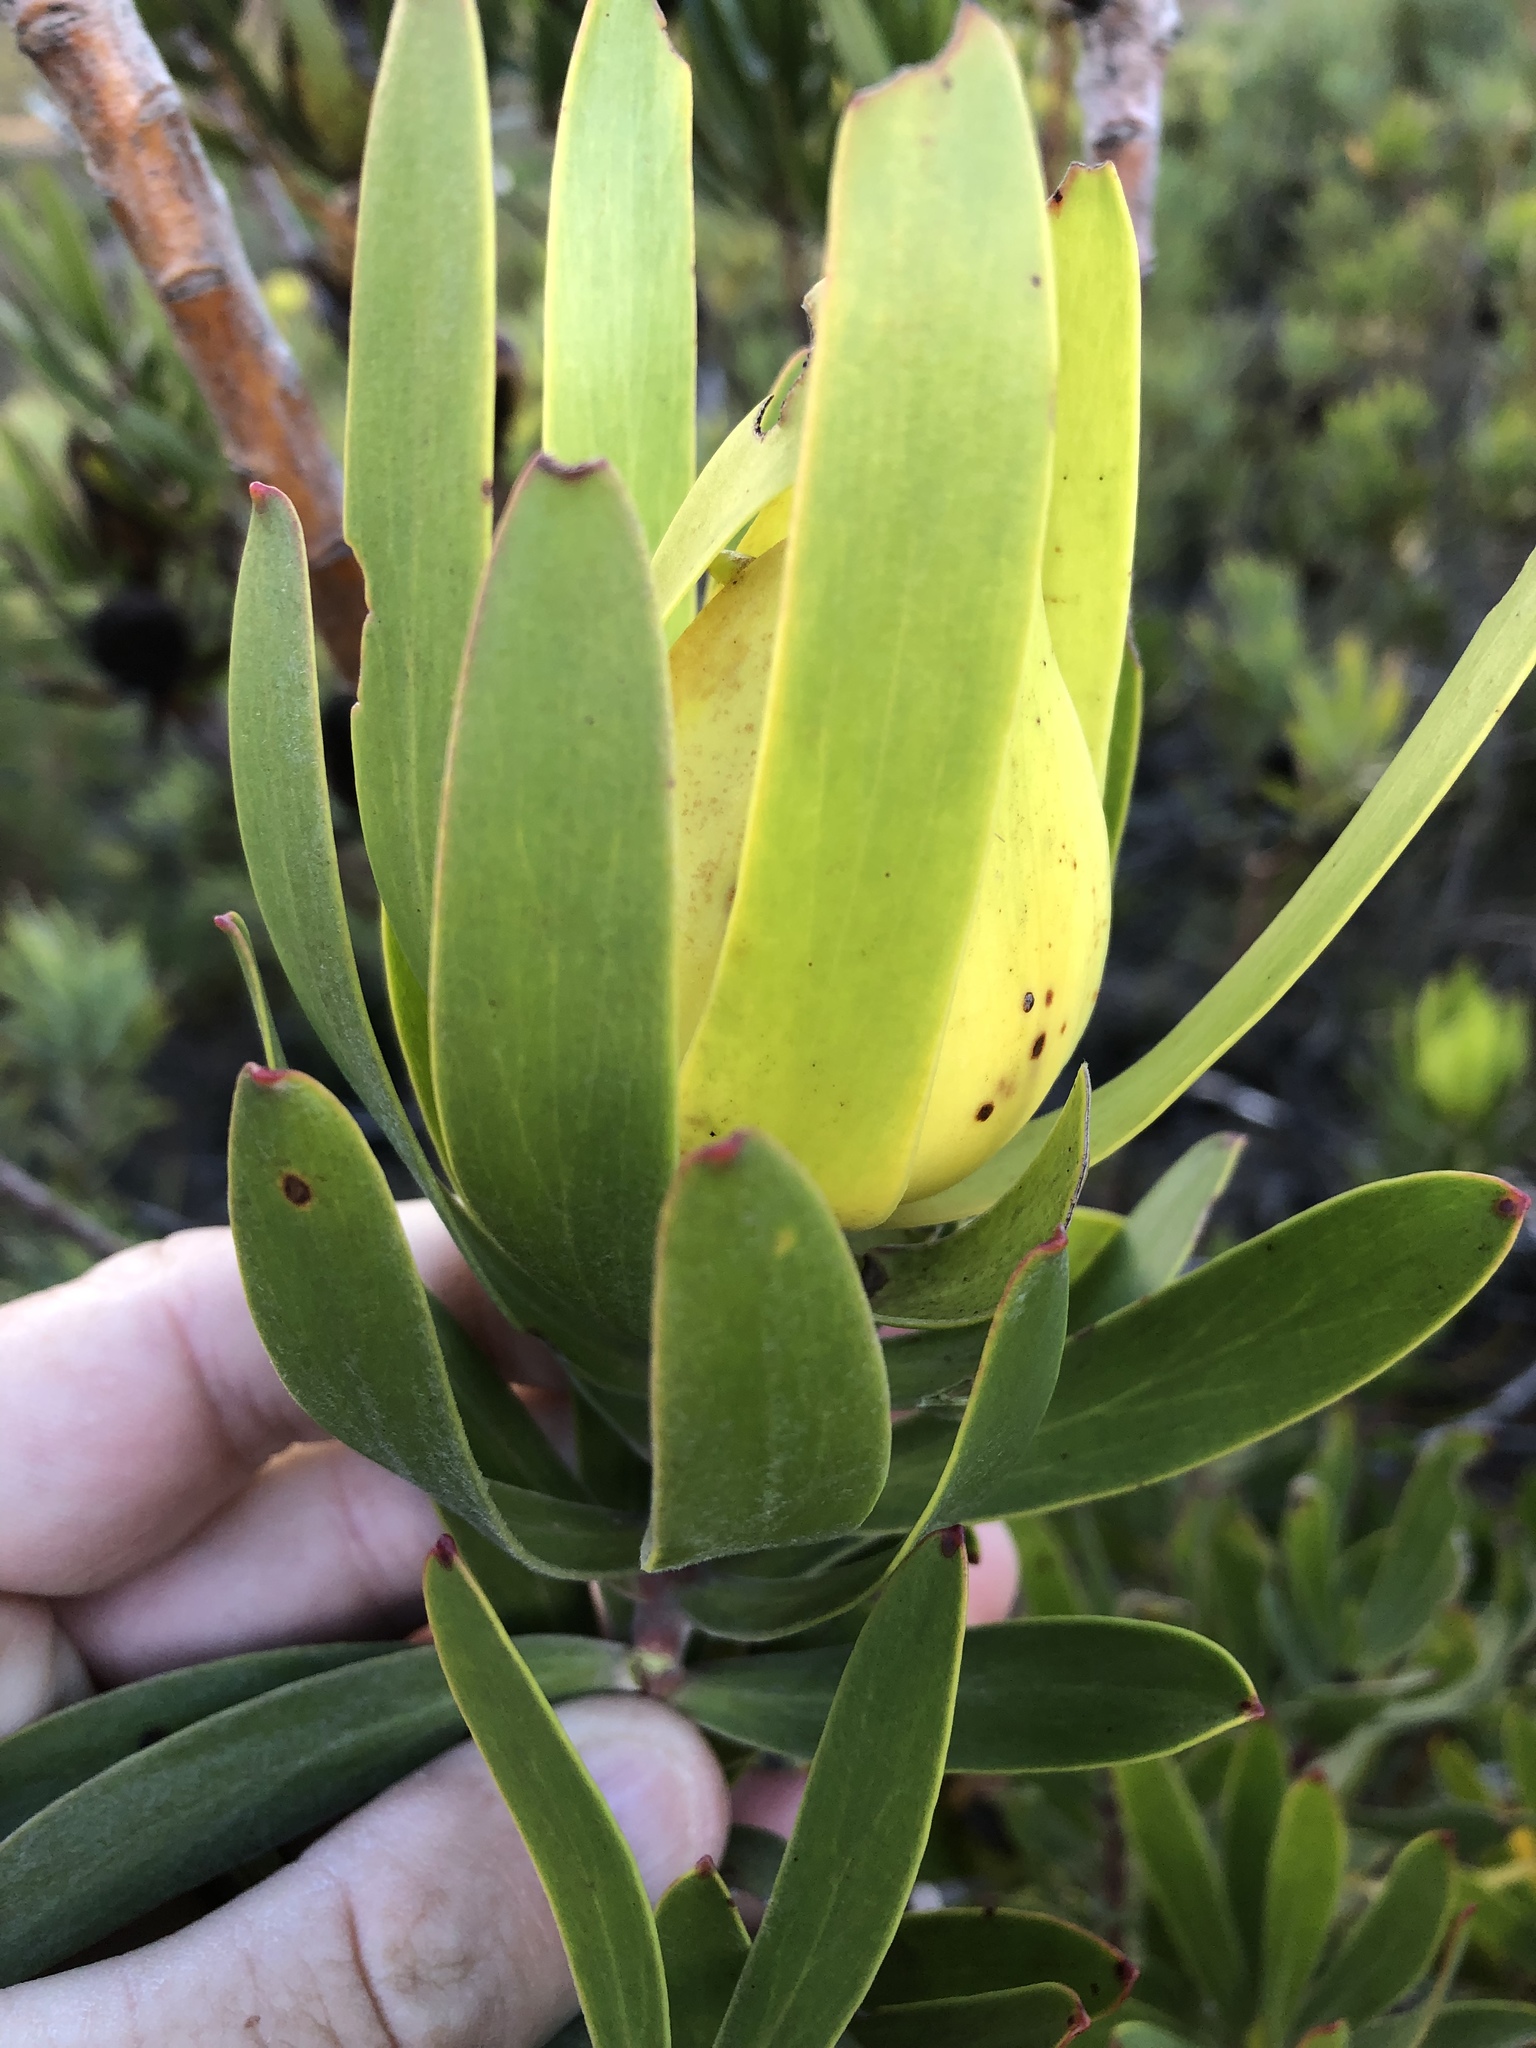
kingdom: Plantae
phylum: Tracheophyta
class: Magnoliopsida
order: Proteales
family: Proteaceae
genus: Leucadendron
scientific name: Leucadendron laureolum
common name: Golden sunshinebush
